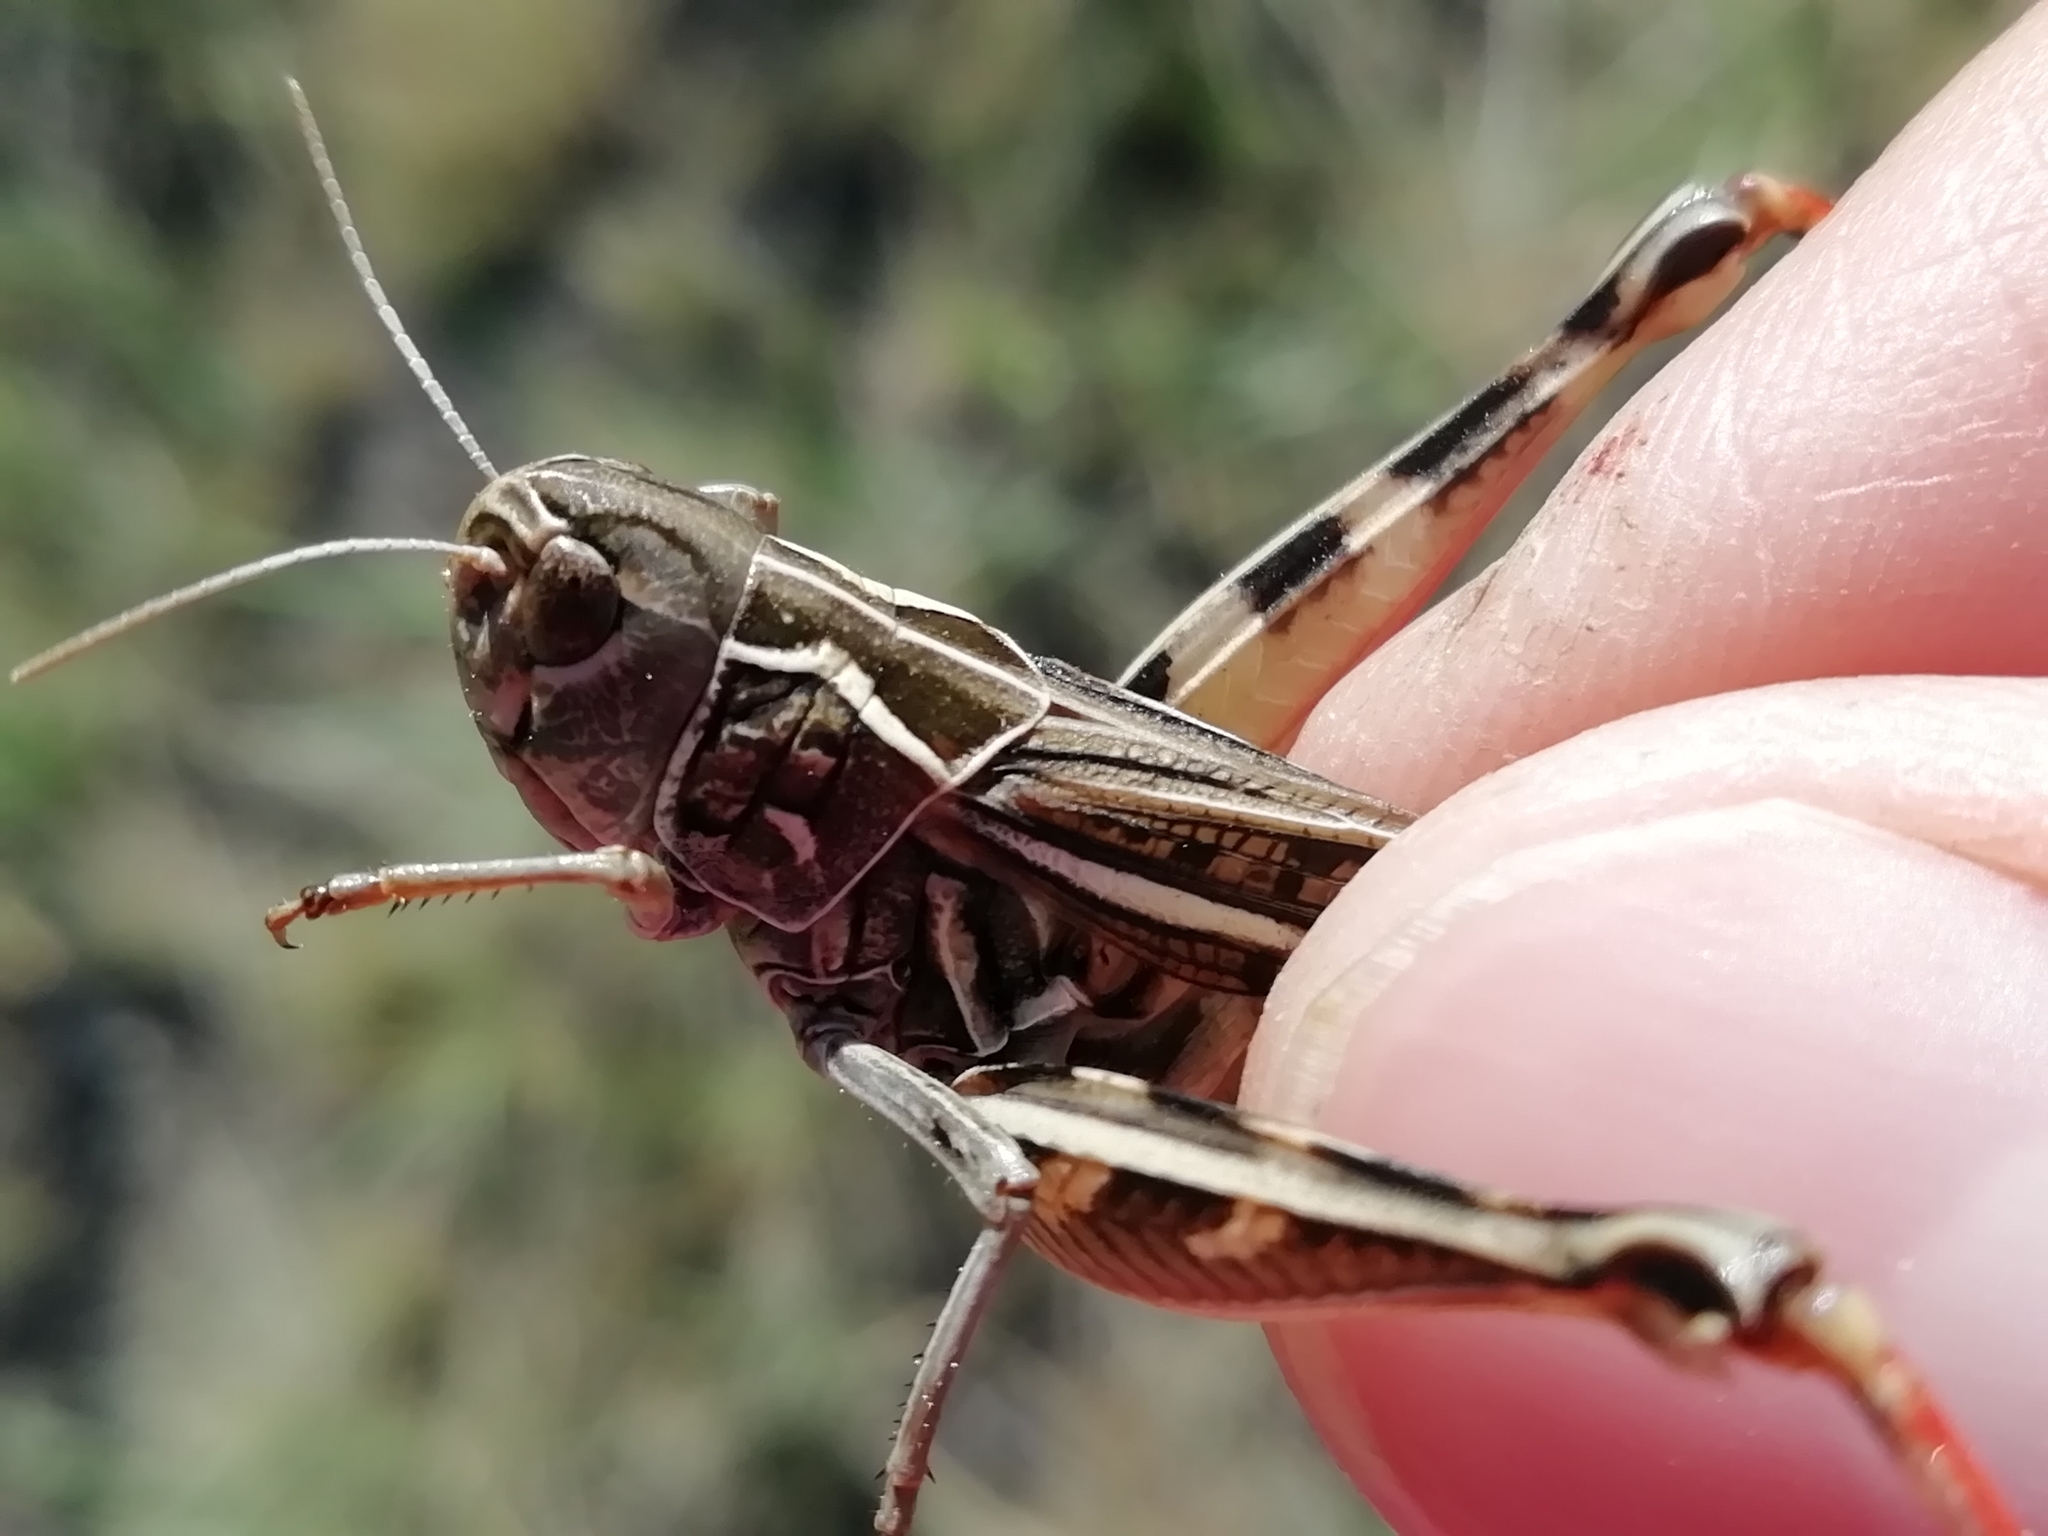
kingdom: Animalia
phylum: Arthropoda
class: Insecta
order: Orthoptera
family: Acrididae
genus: Arcyptera
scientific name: Arcyptera microptera
